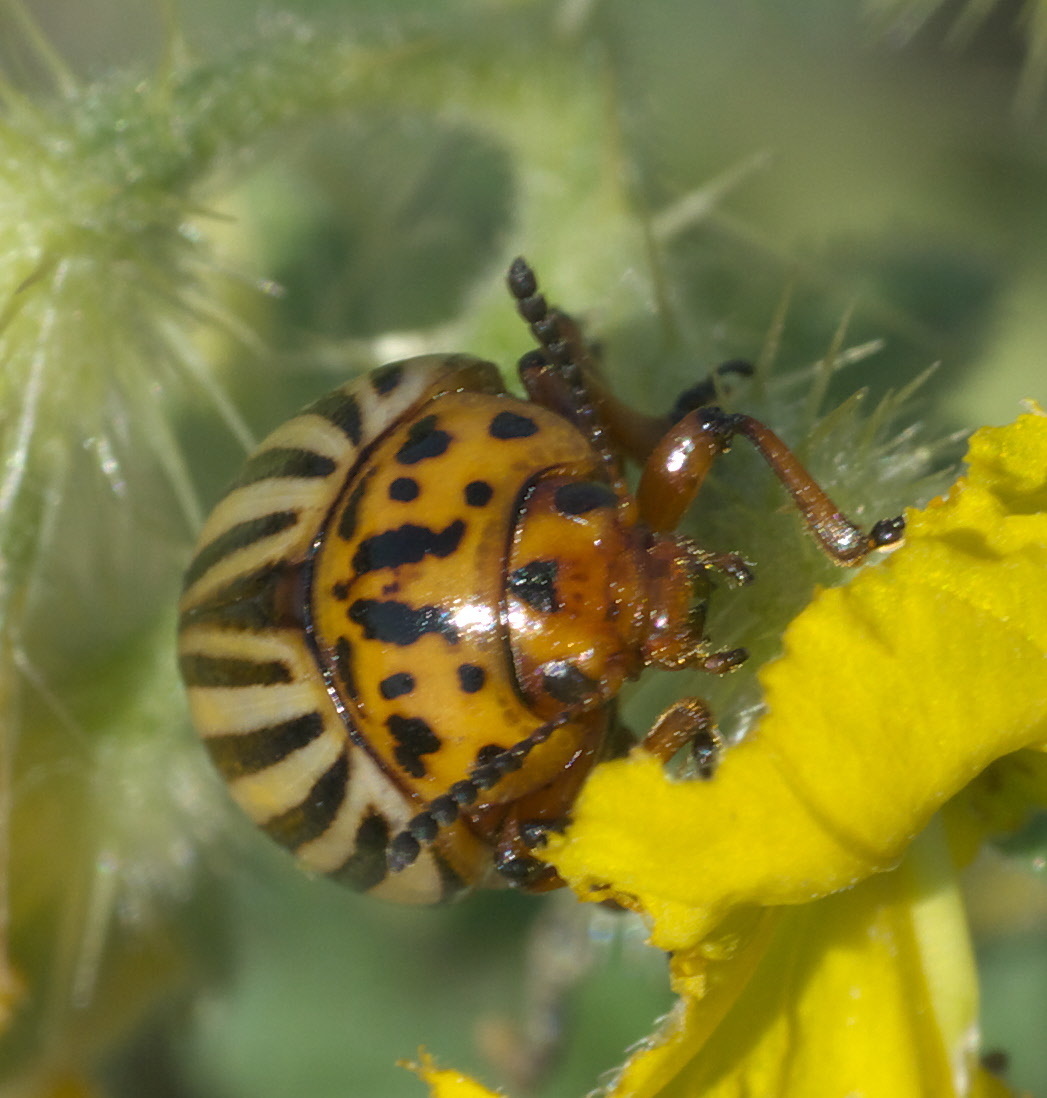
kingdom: Animalia
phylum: Arthropoda
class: Insecta
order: Coleoptera
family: Chrysomelidae
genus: Leptinotarsa
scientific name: Leptinotarsa decemlineata
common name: Colorado potato beetle
